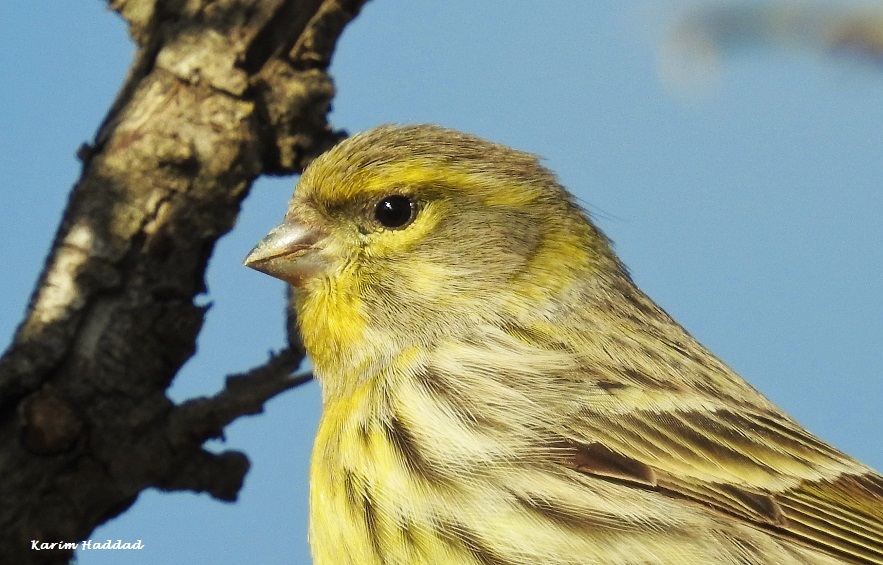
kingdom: Animalia
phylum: Chordata
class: Aves
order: Passeriformes
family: Fringillidae
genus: Serinus
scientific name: Serinus serinus
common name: European serin
